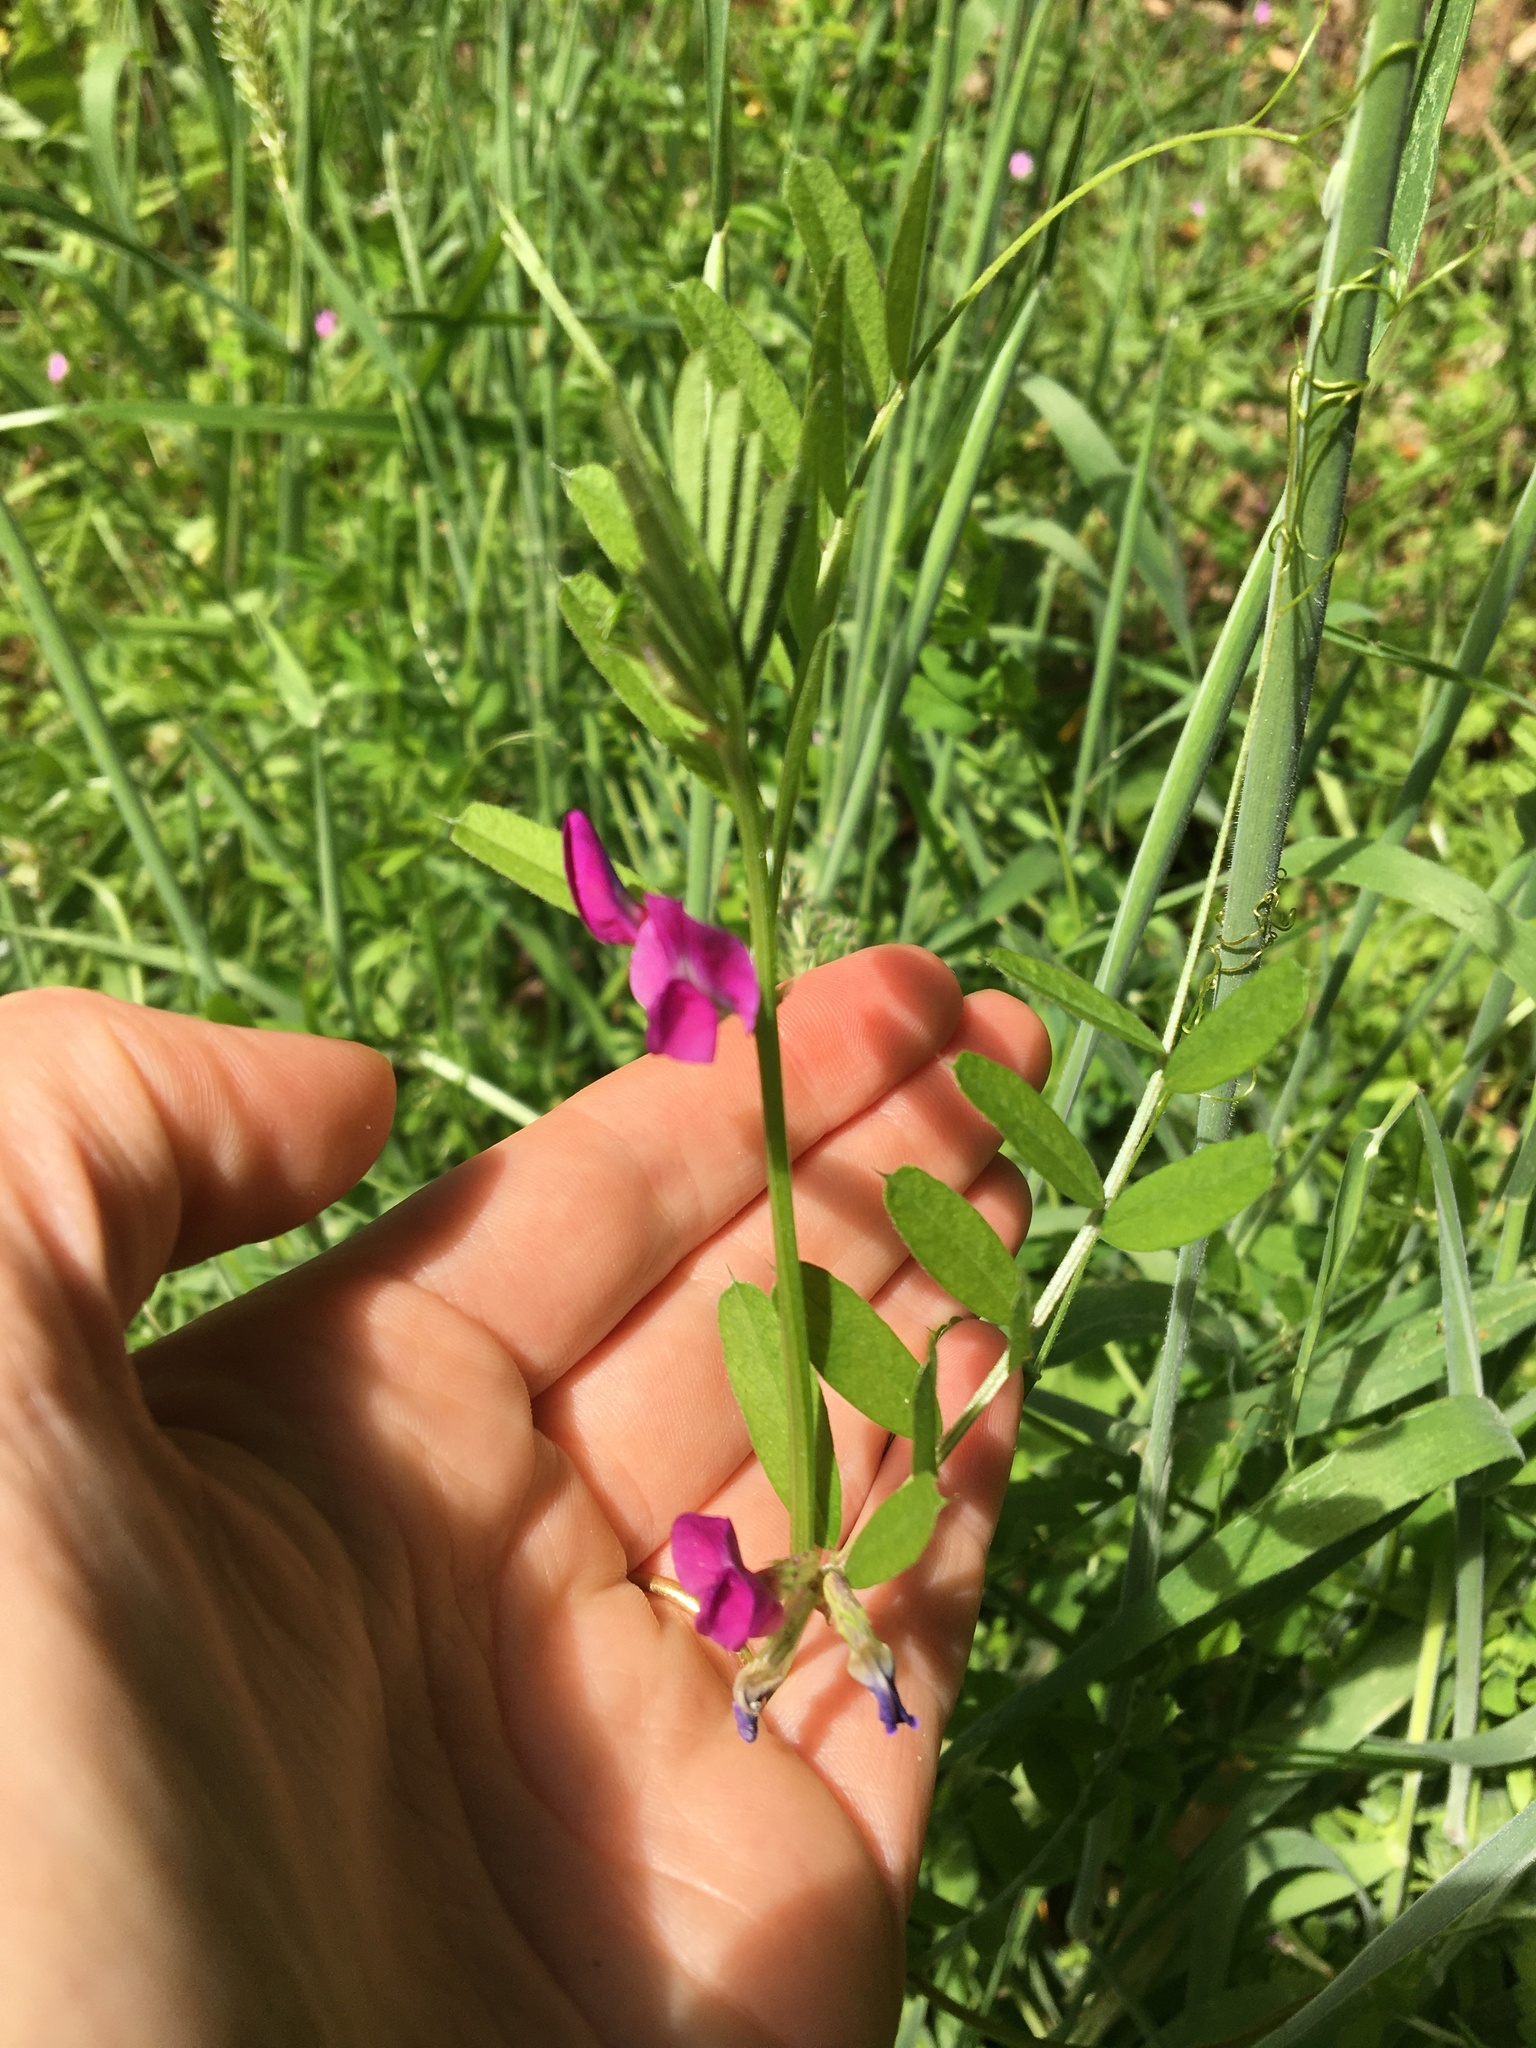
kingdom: Plantae
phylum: Tracheophyta
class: Magnoliopsida
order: Fabales
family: Fabaceae
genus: Vicia
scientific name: Vicia sativa
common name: Garden vetch
